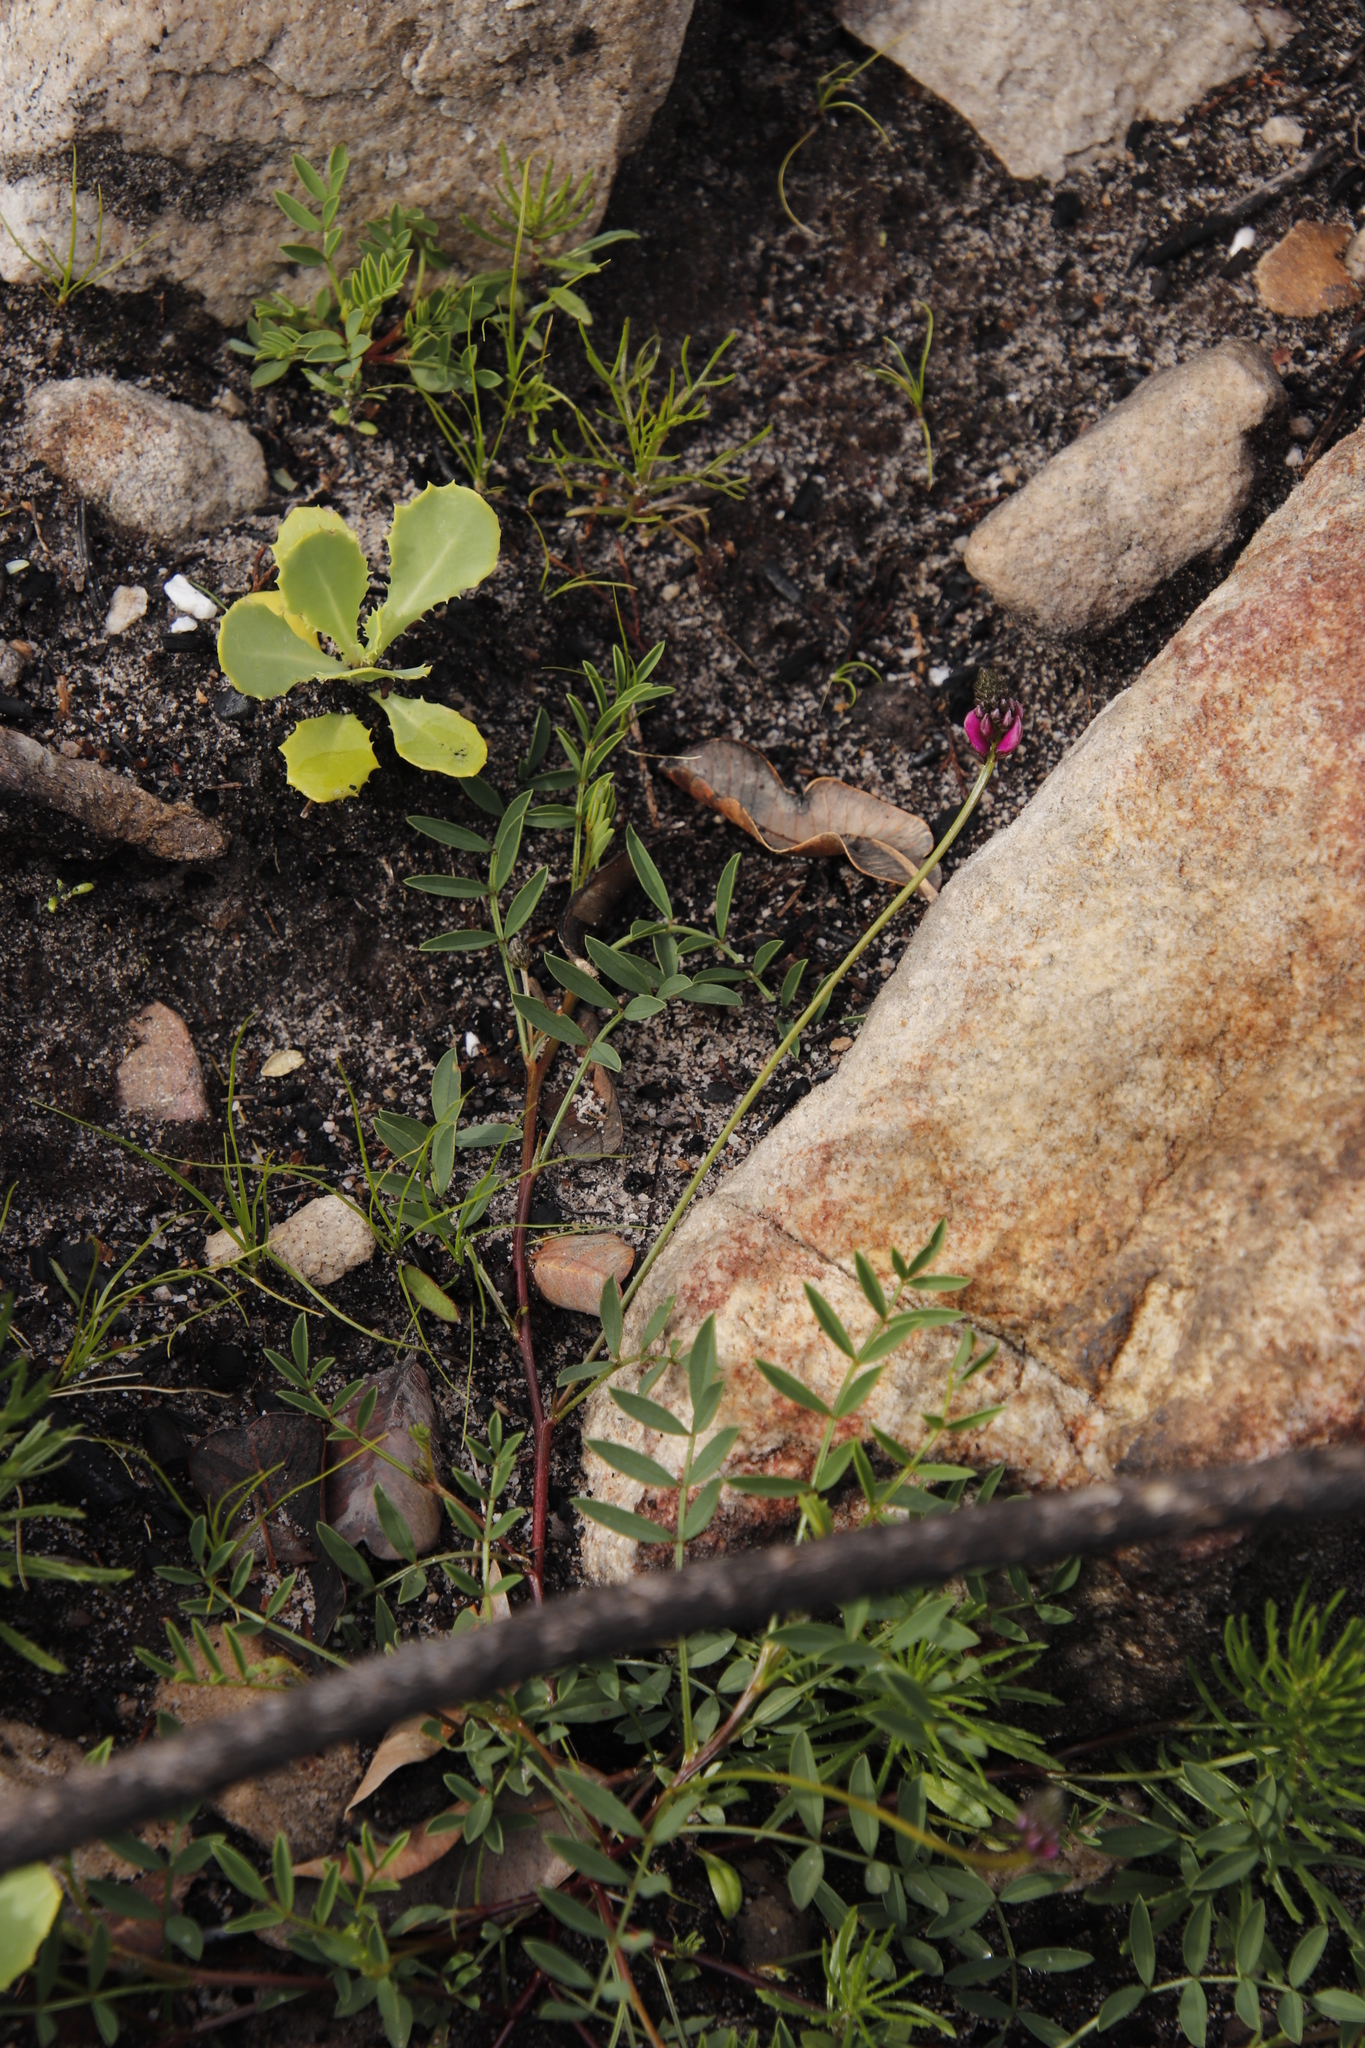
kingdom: Plantae
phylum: Tracheophyta
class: Magnoliopsida
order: Fabales
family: Fabaceae
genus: Indigofera
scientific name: Indigofera capillaris
